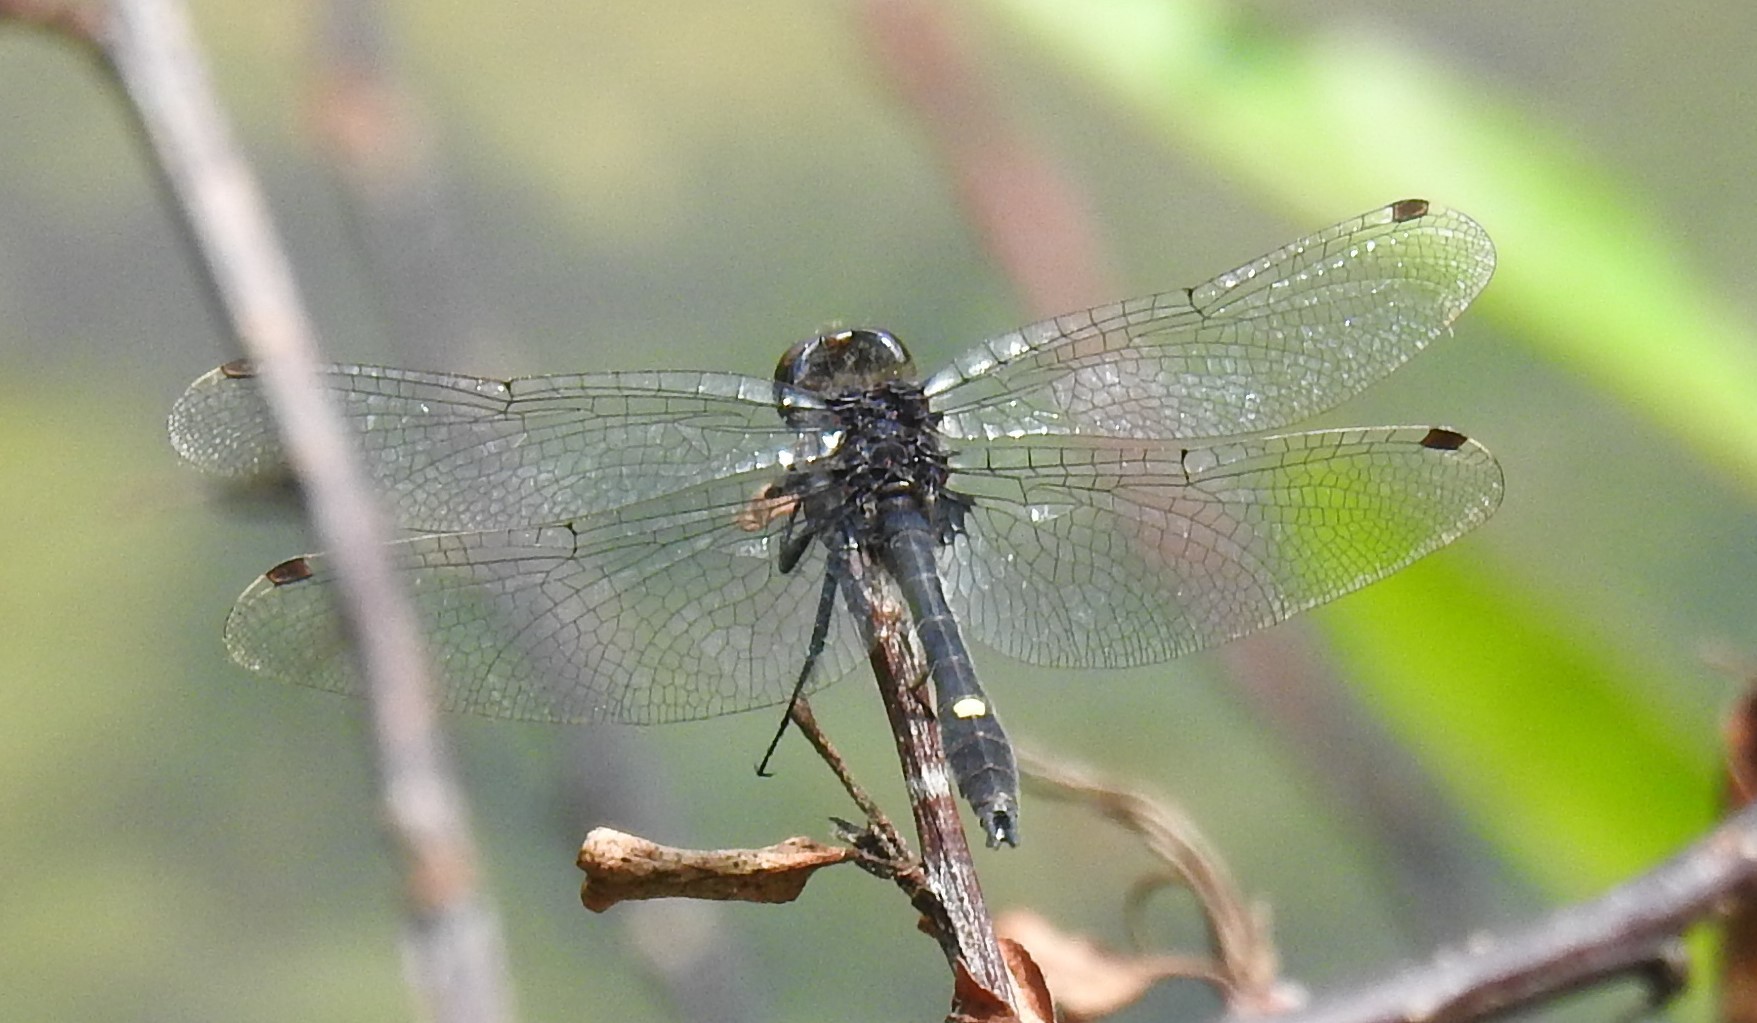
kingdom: Animalia
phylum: Arthropoda
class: Insecta
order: Odonata
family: Libellulidae
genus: Leucorrhinia
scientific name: Leucorrhinia intacta
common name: Dot-tailed whiteface
